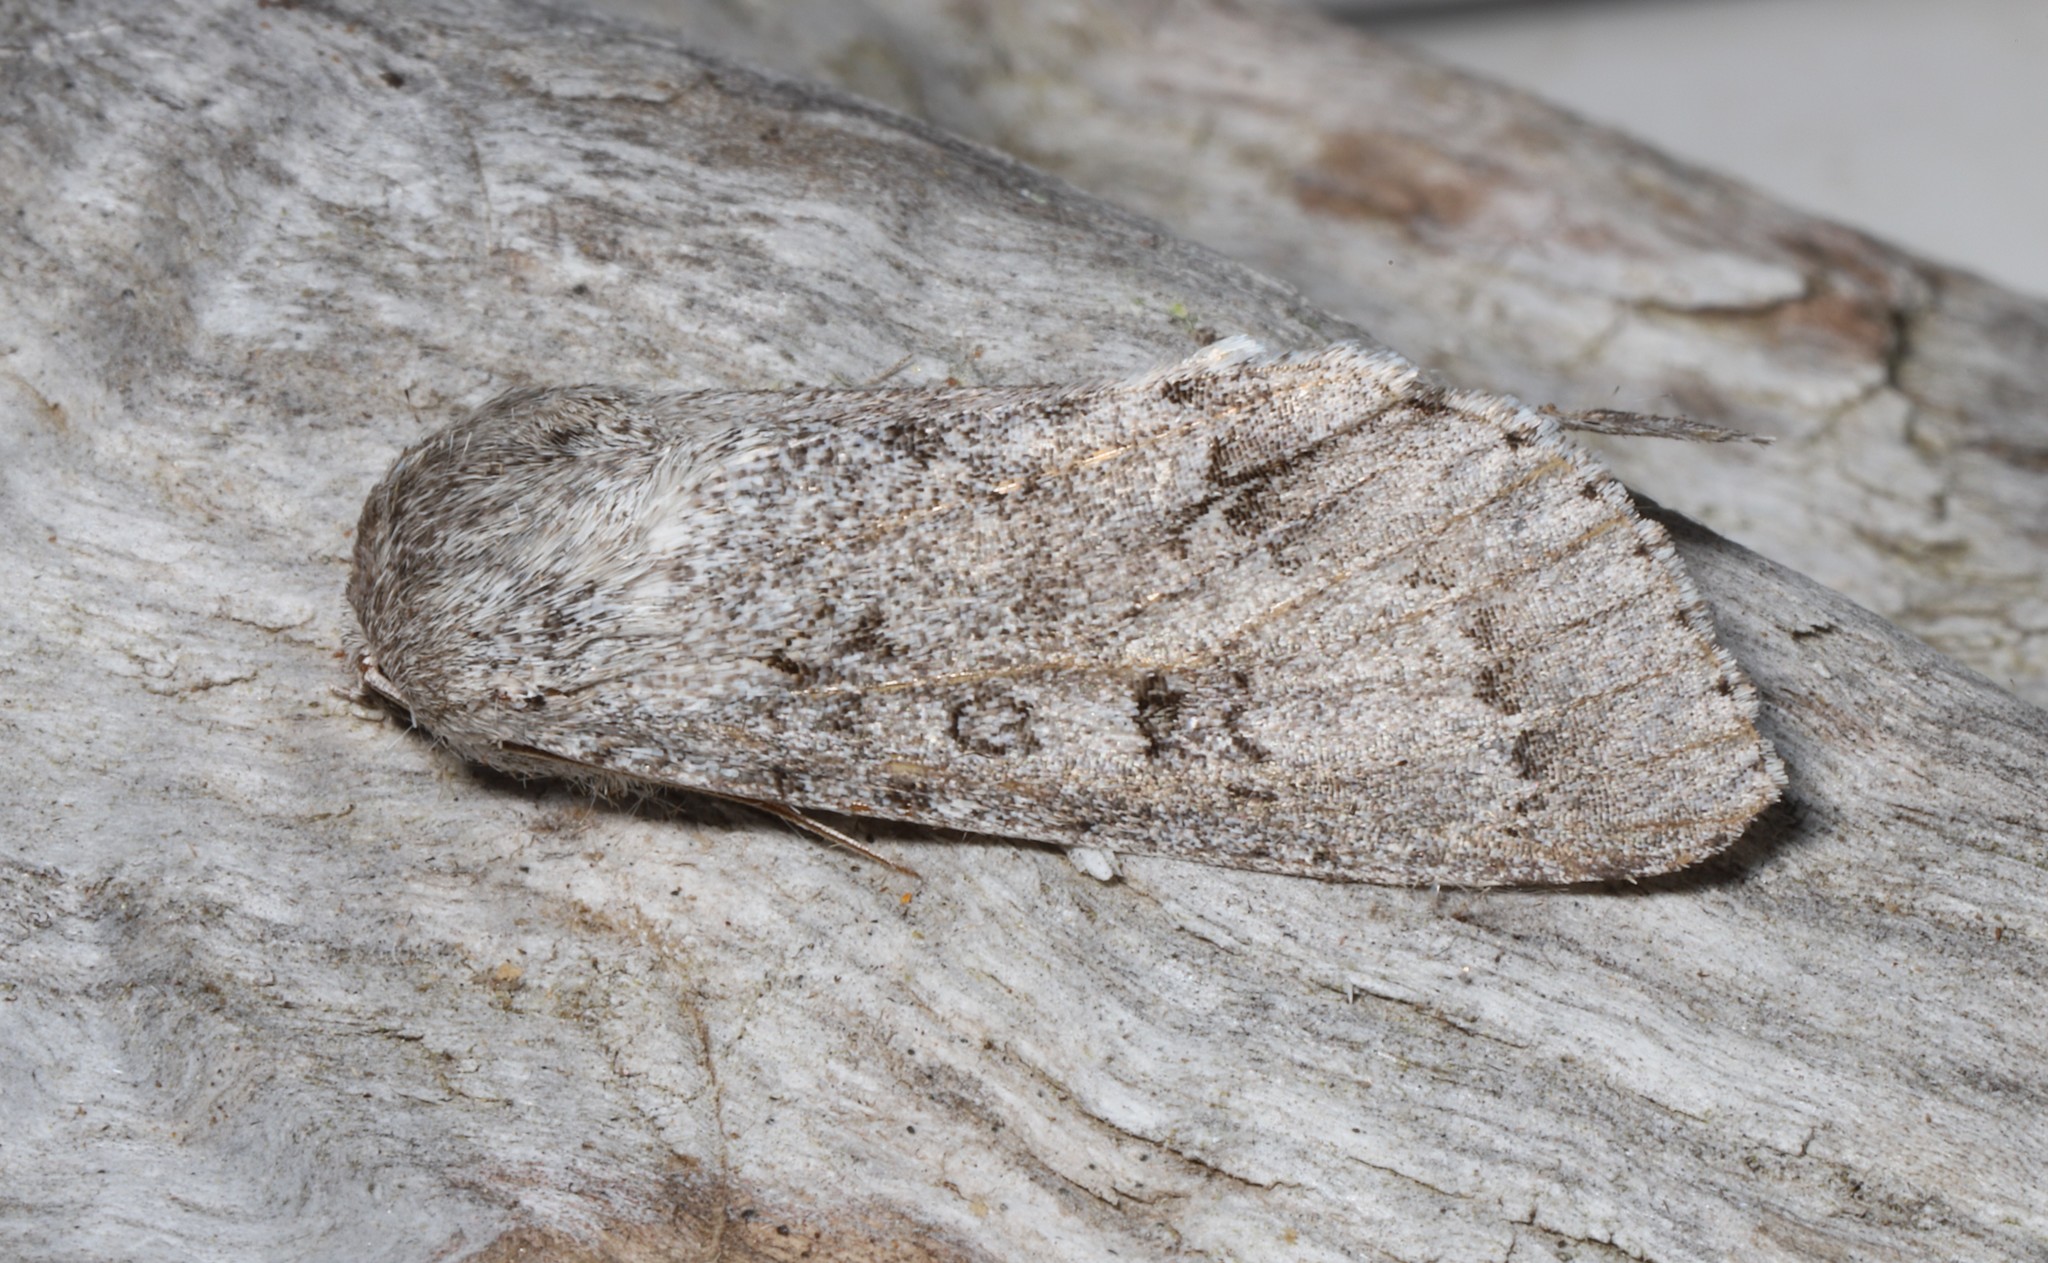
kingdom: Animalia
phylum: Arthropoda
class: Insecta
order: Lepidoptera
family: Noctuidae
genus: Acronicta
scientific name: Acronicta insita
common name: Large gray dagger
